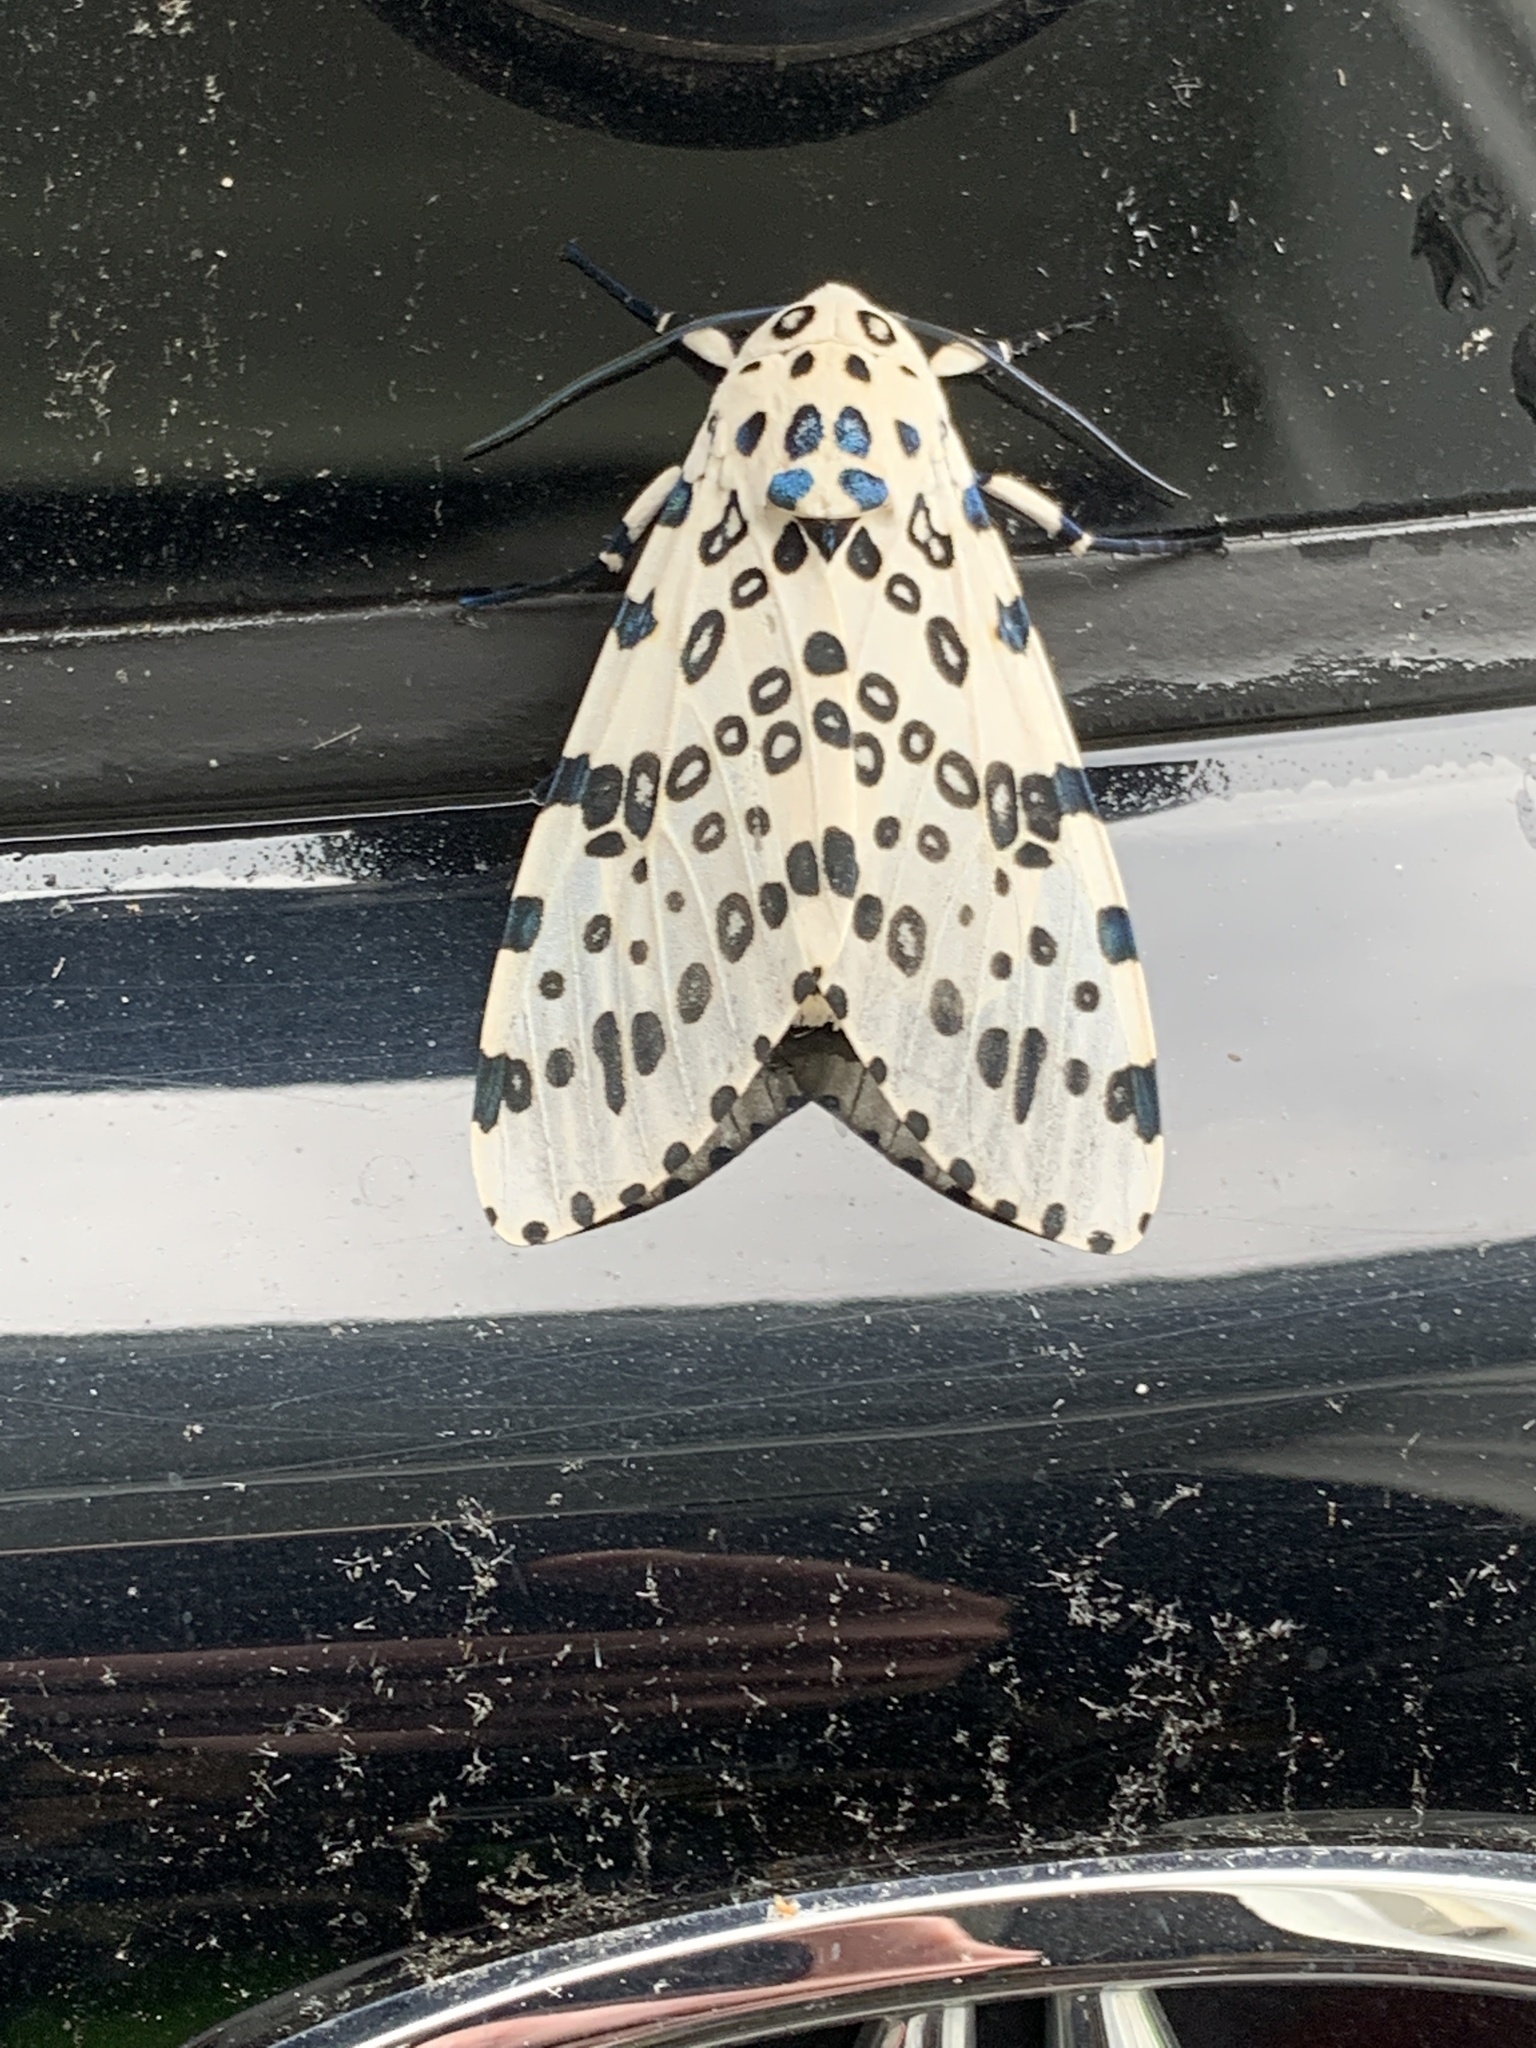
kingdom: Animalia
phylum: Arthropoda
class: Insecta
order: Lepidoptera
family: Erebidae
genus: Hypercompe
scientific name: Hypercompe scribonia
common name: Giant leopard moth
